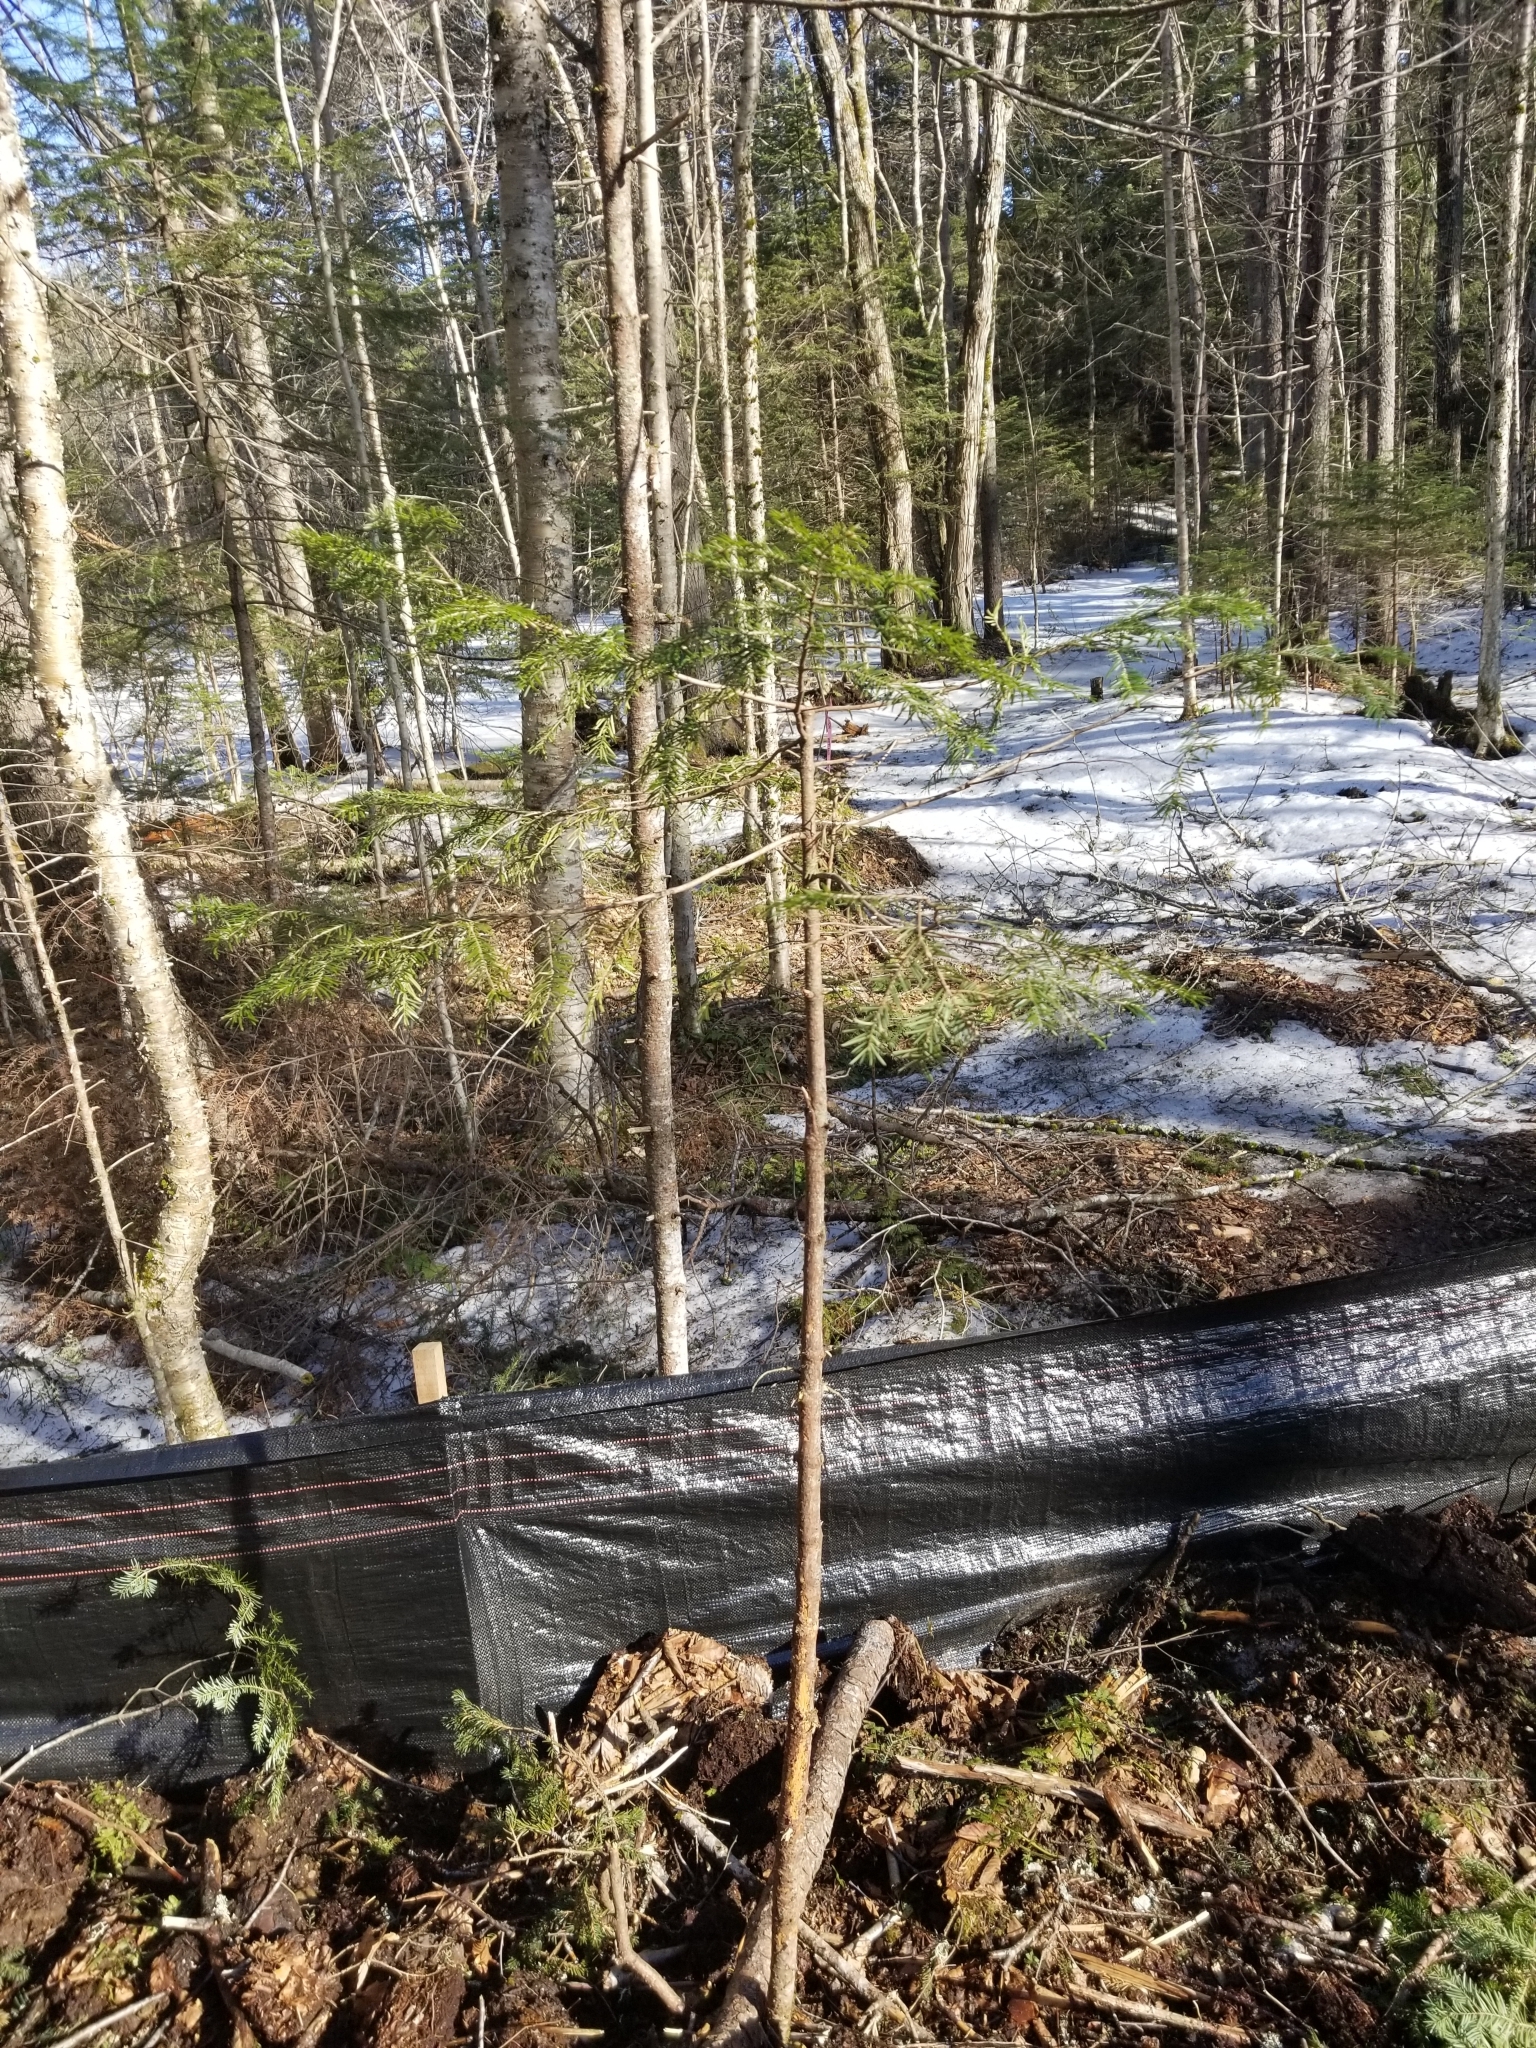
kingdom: Plantae
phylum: Tracheophyta
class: Pinopsida
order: Pinales
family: Pinaceae
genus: Abies
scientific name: Abies balsamea
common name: Balsam fir
